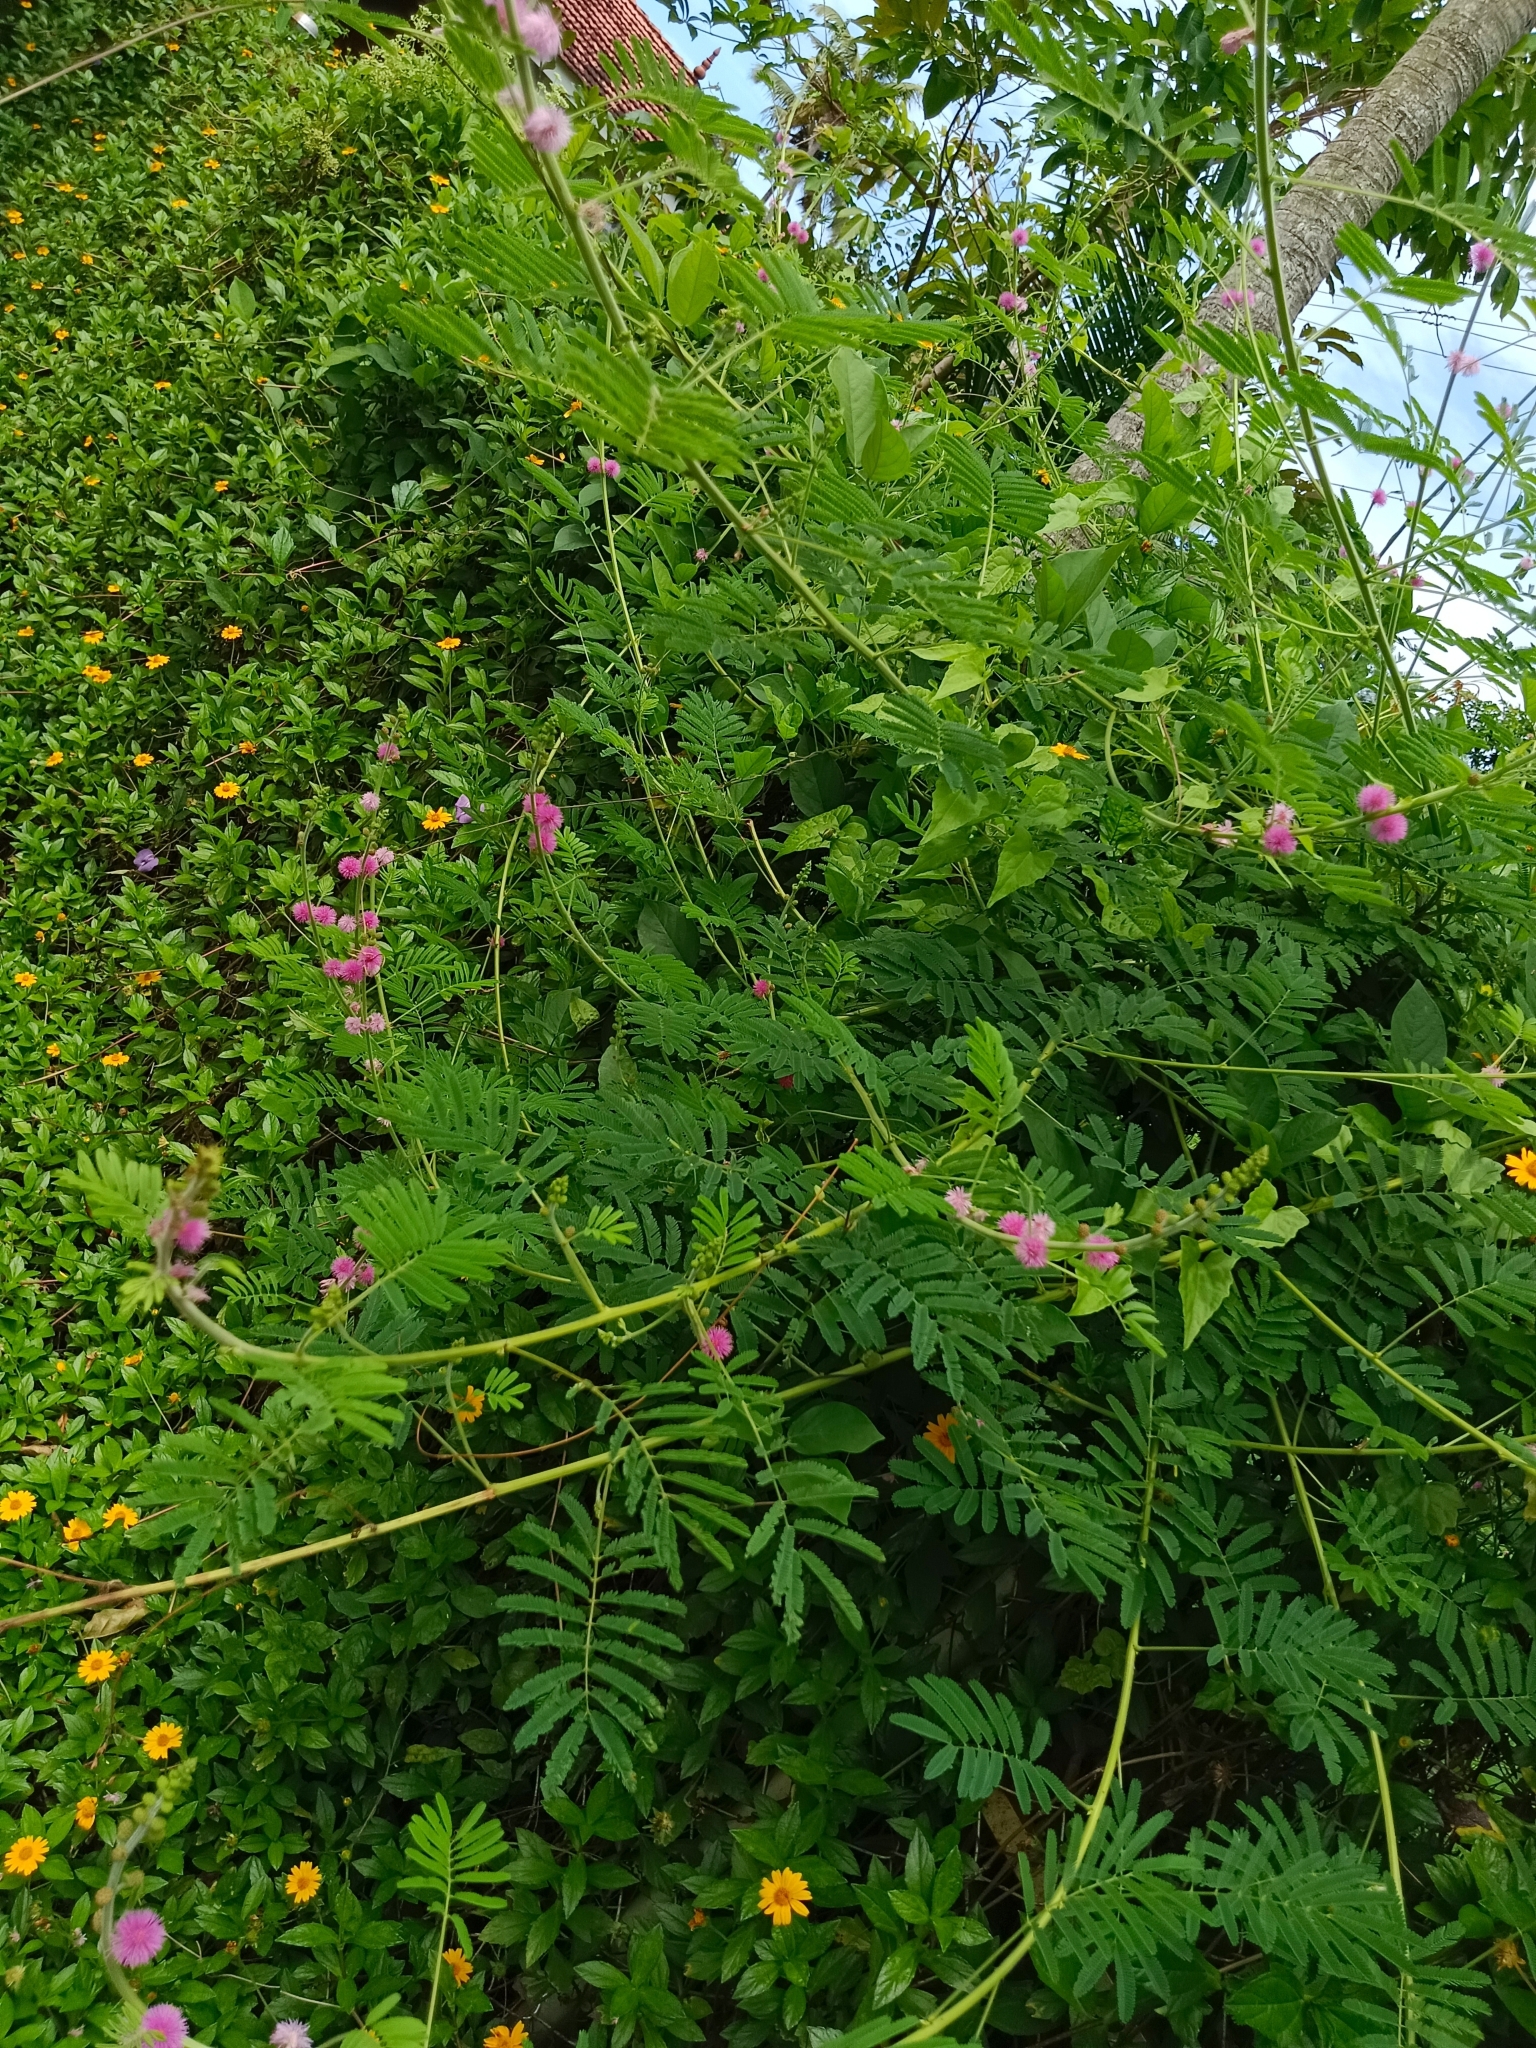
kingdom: Plantae
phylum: Tracheophyta
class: Magnoliopsida
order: Fabales
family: Fabaceae
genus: Mimosa
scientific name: Mimosa diplotricha
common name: Giant sensitive-plant
